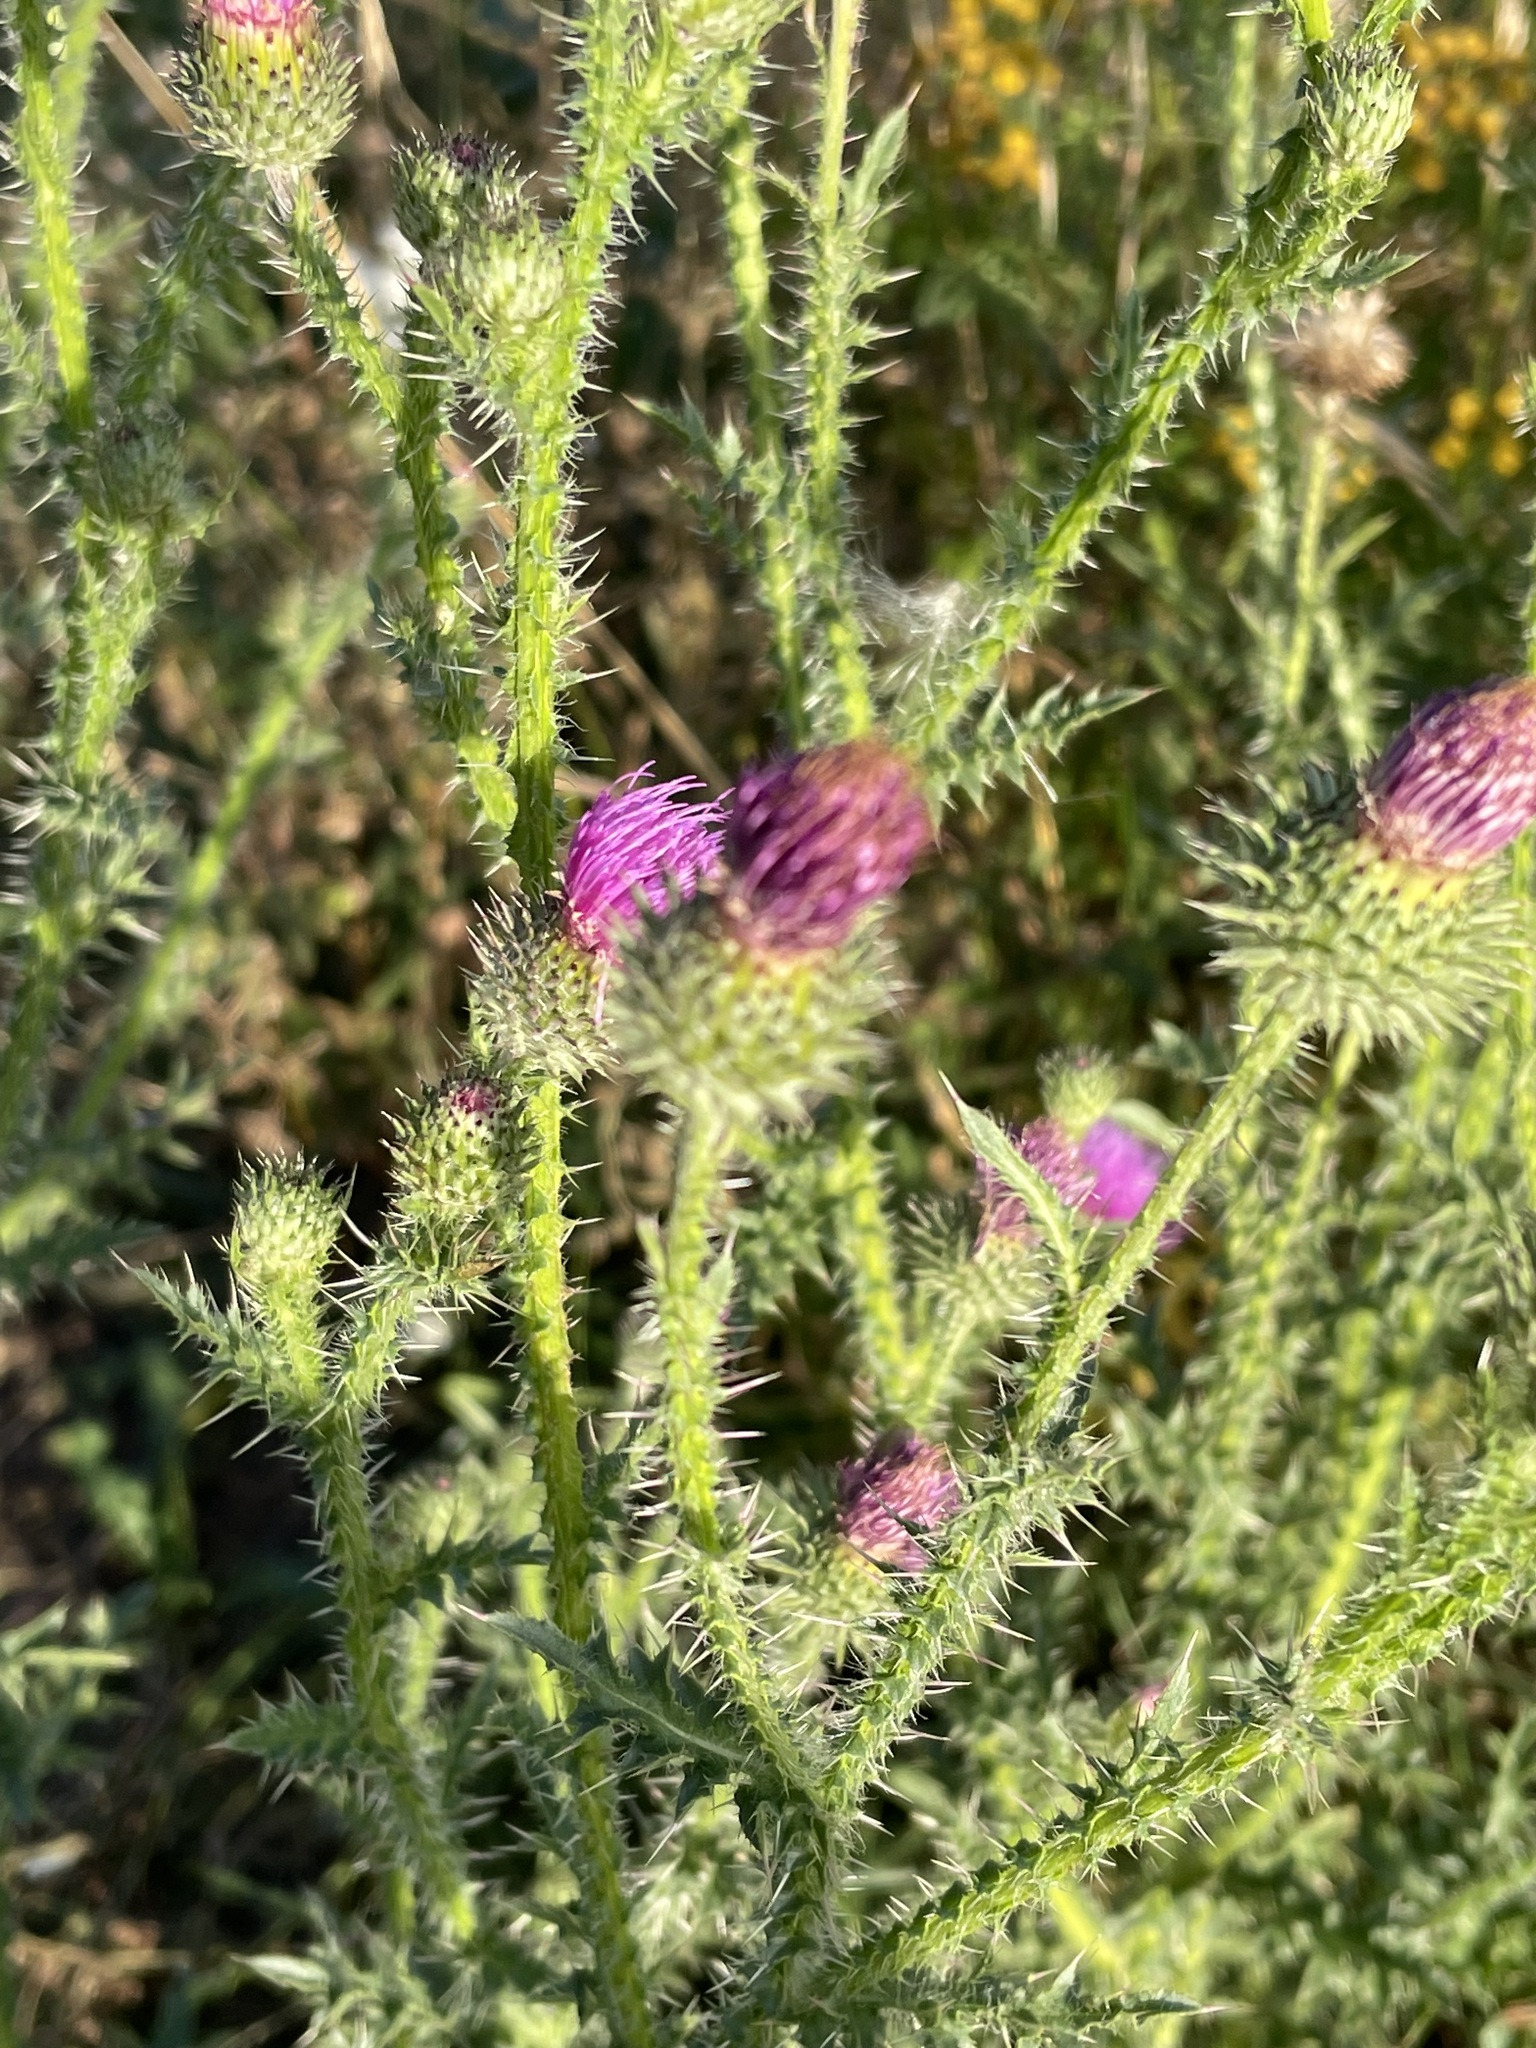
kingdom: Plantae
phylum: Tracheophyta
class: Magnoliopsida
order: Asterales
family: Asteraceae
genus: Carduus
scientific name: Carduus acanthoides
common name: Plumeless thistle
